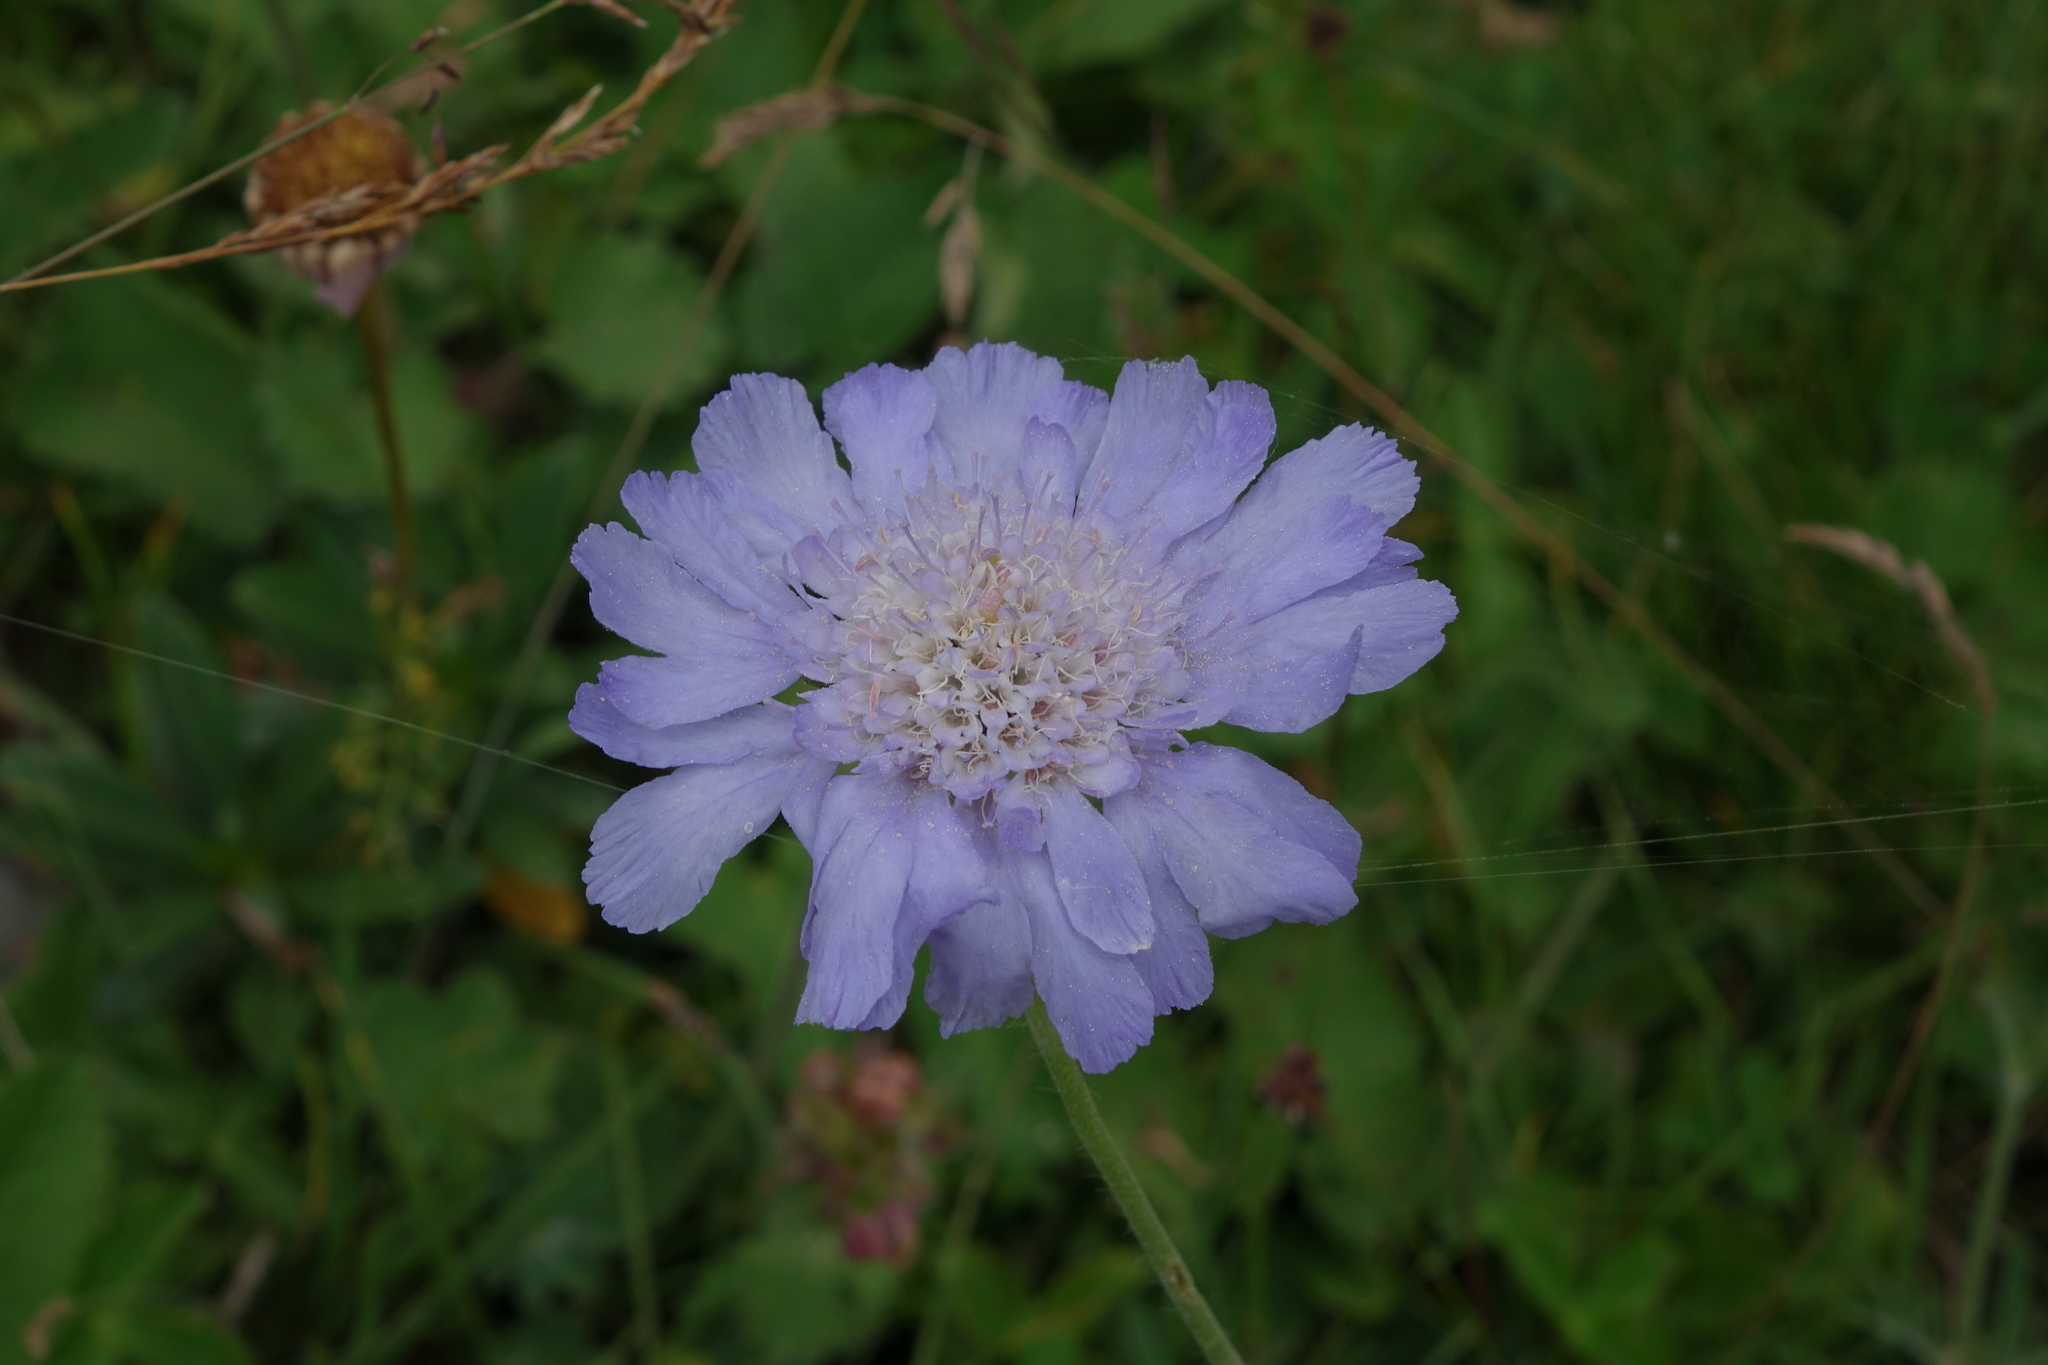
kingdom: Plantae
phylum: Tracheophyta
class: Magnoliopsida
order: Dipsacales
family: Caprifoliaceae
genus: Lomelosia
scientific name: Lomelosia caucasica
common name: Pincushion-flower
